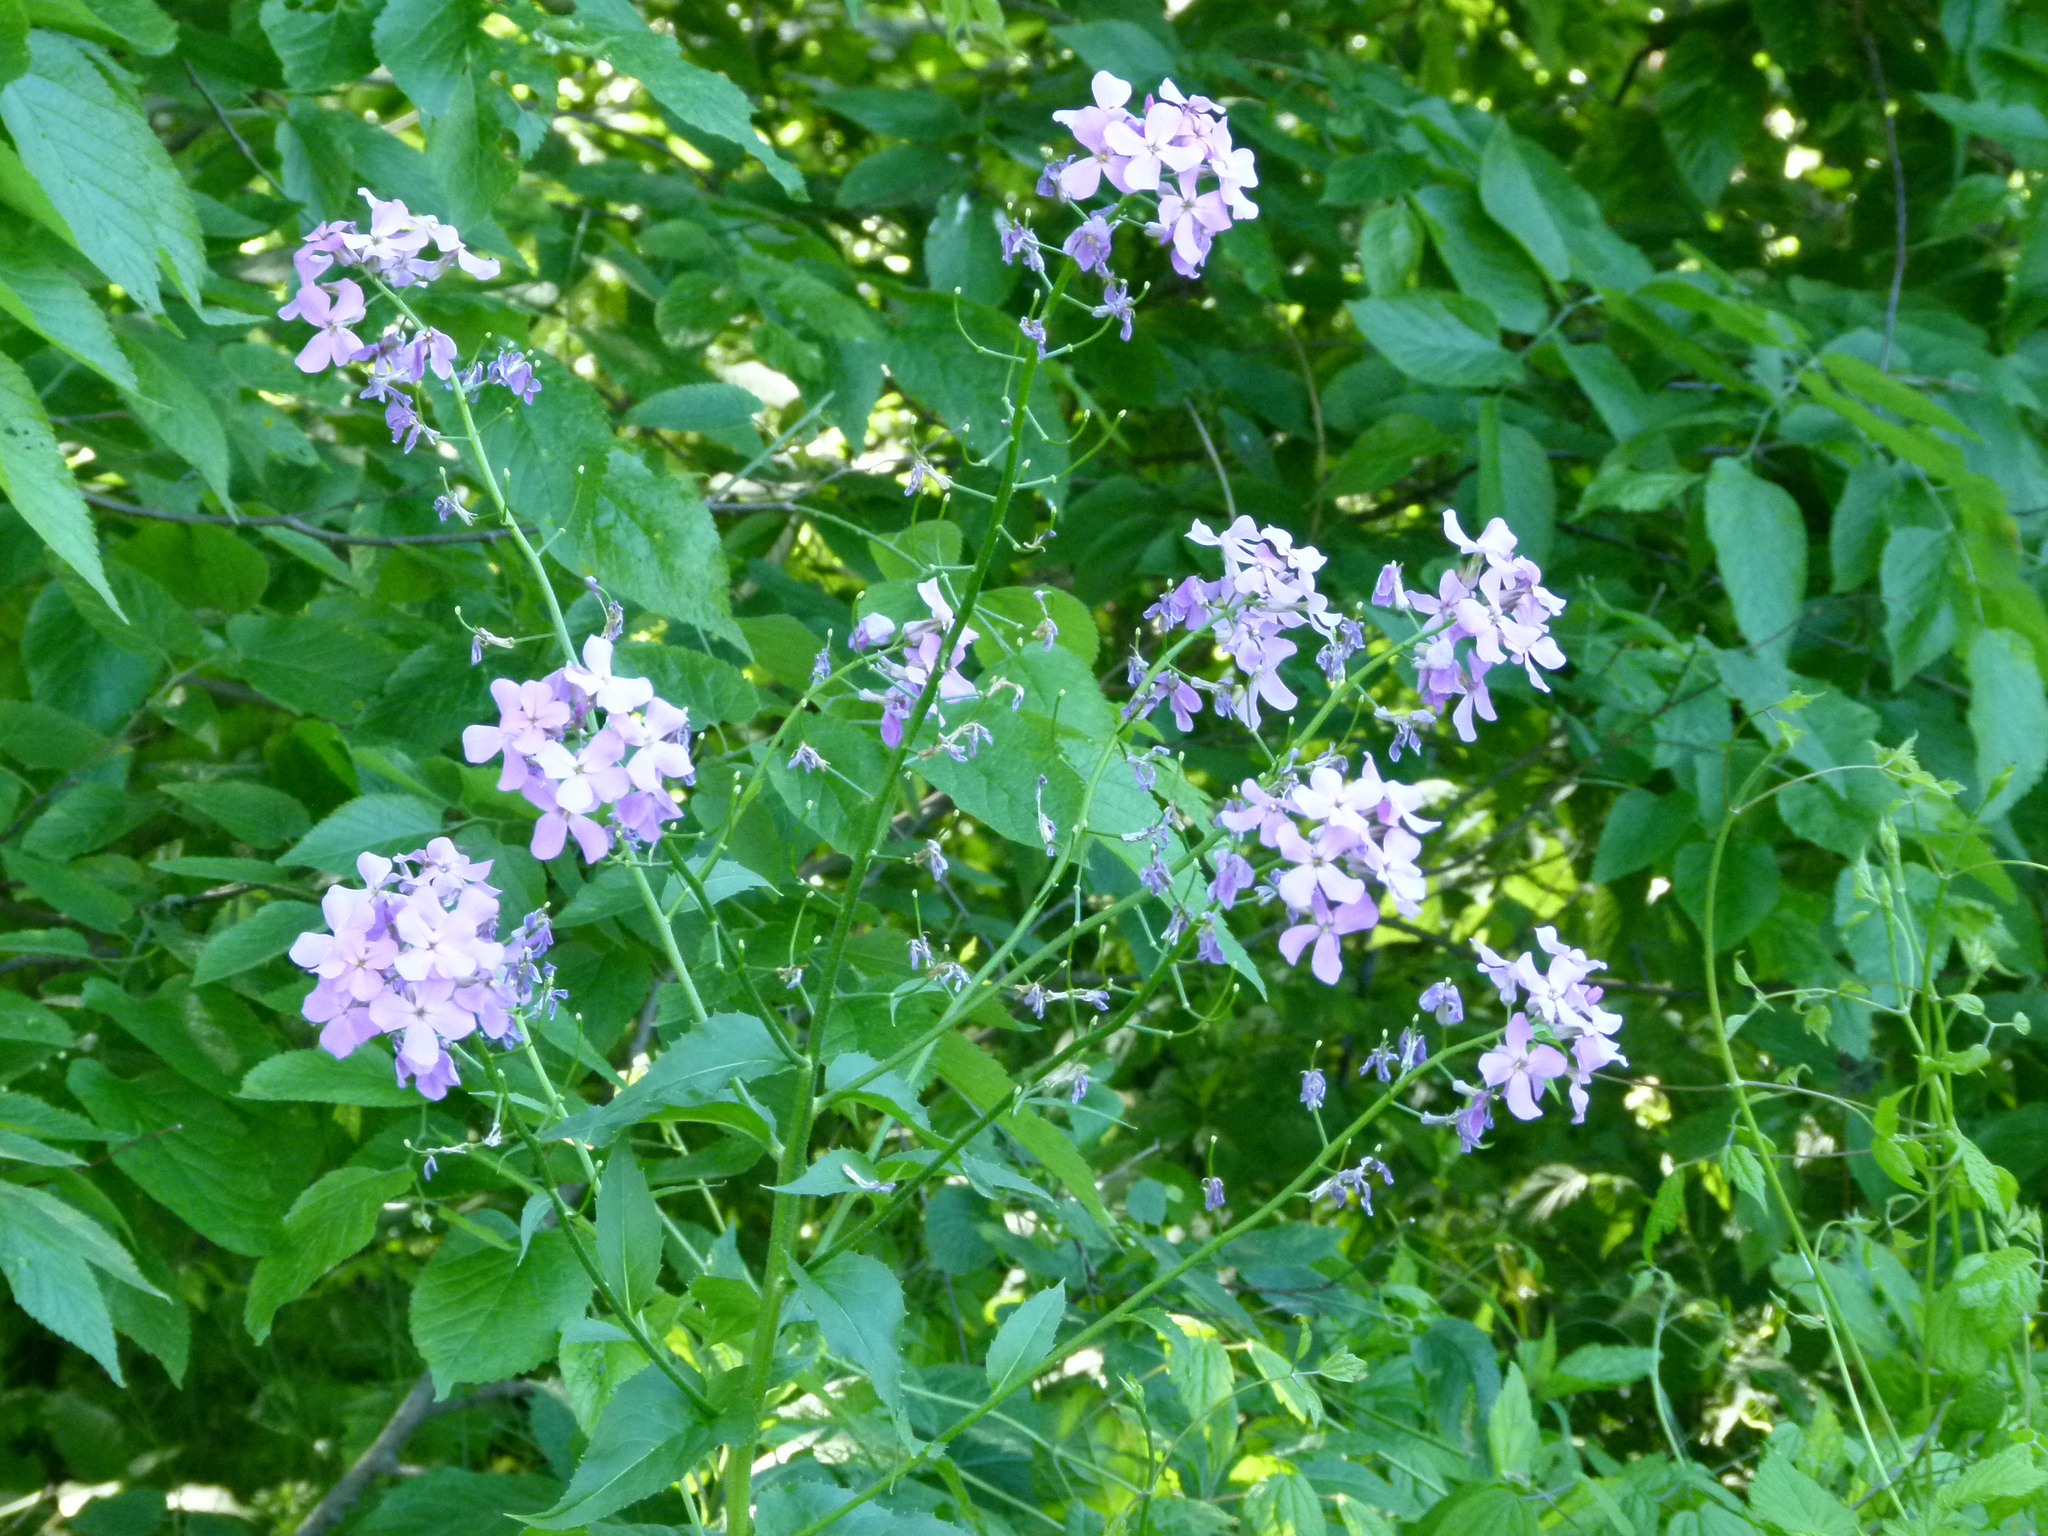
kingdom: Plantae
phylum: Tracheophyta
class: Magnoliopsida
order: Brassicales
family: Brassicaceae
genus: Hesperis
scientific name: Hesperis matronalis
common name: Dame's-violet
